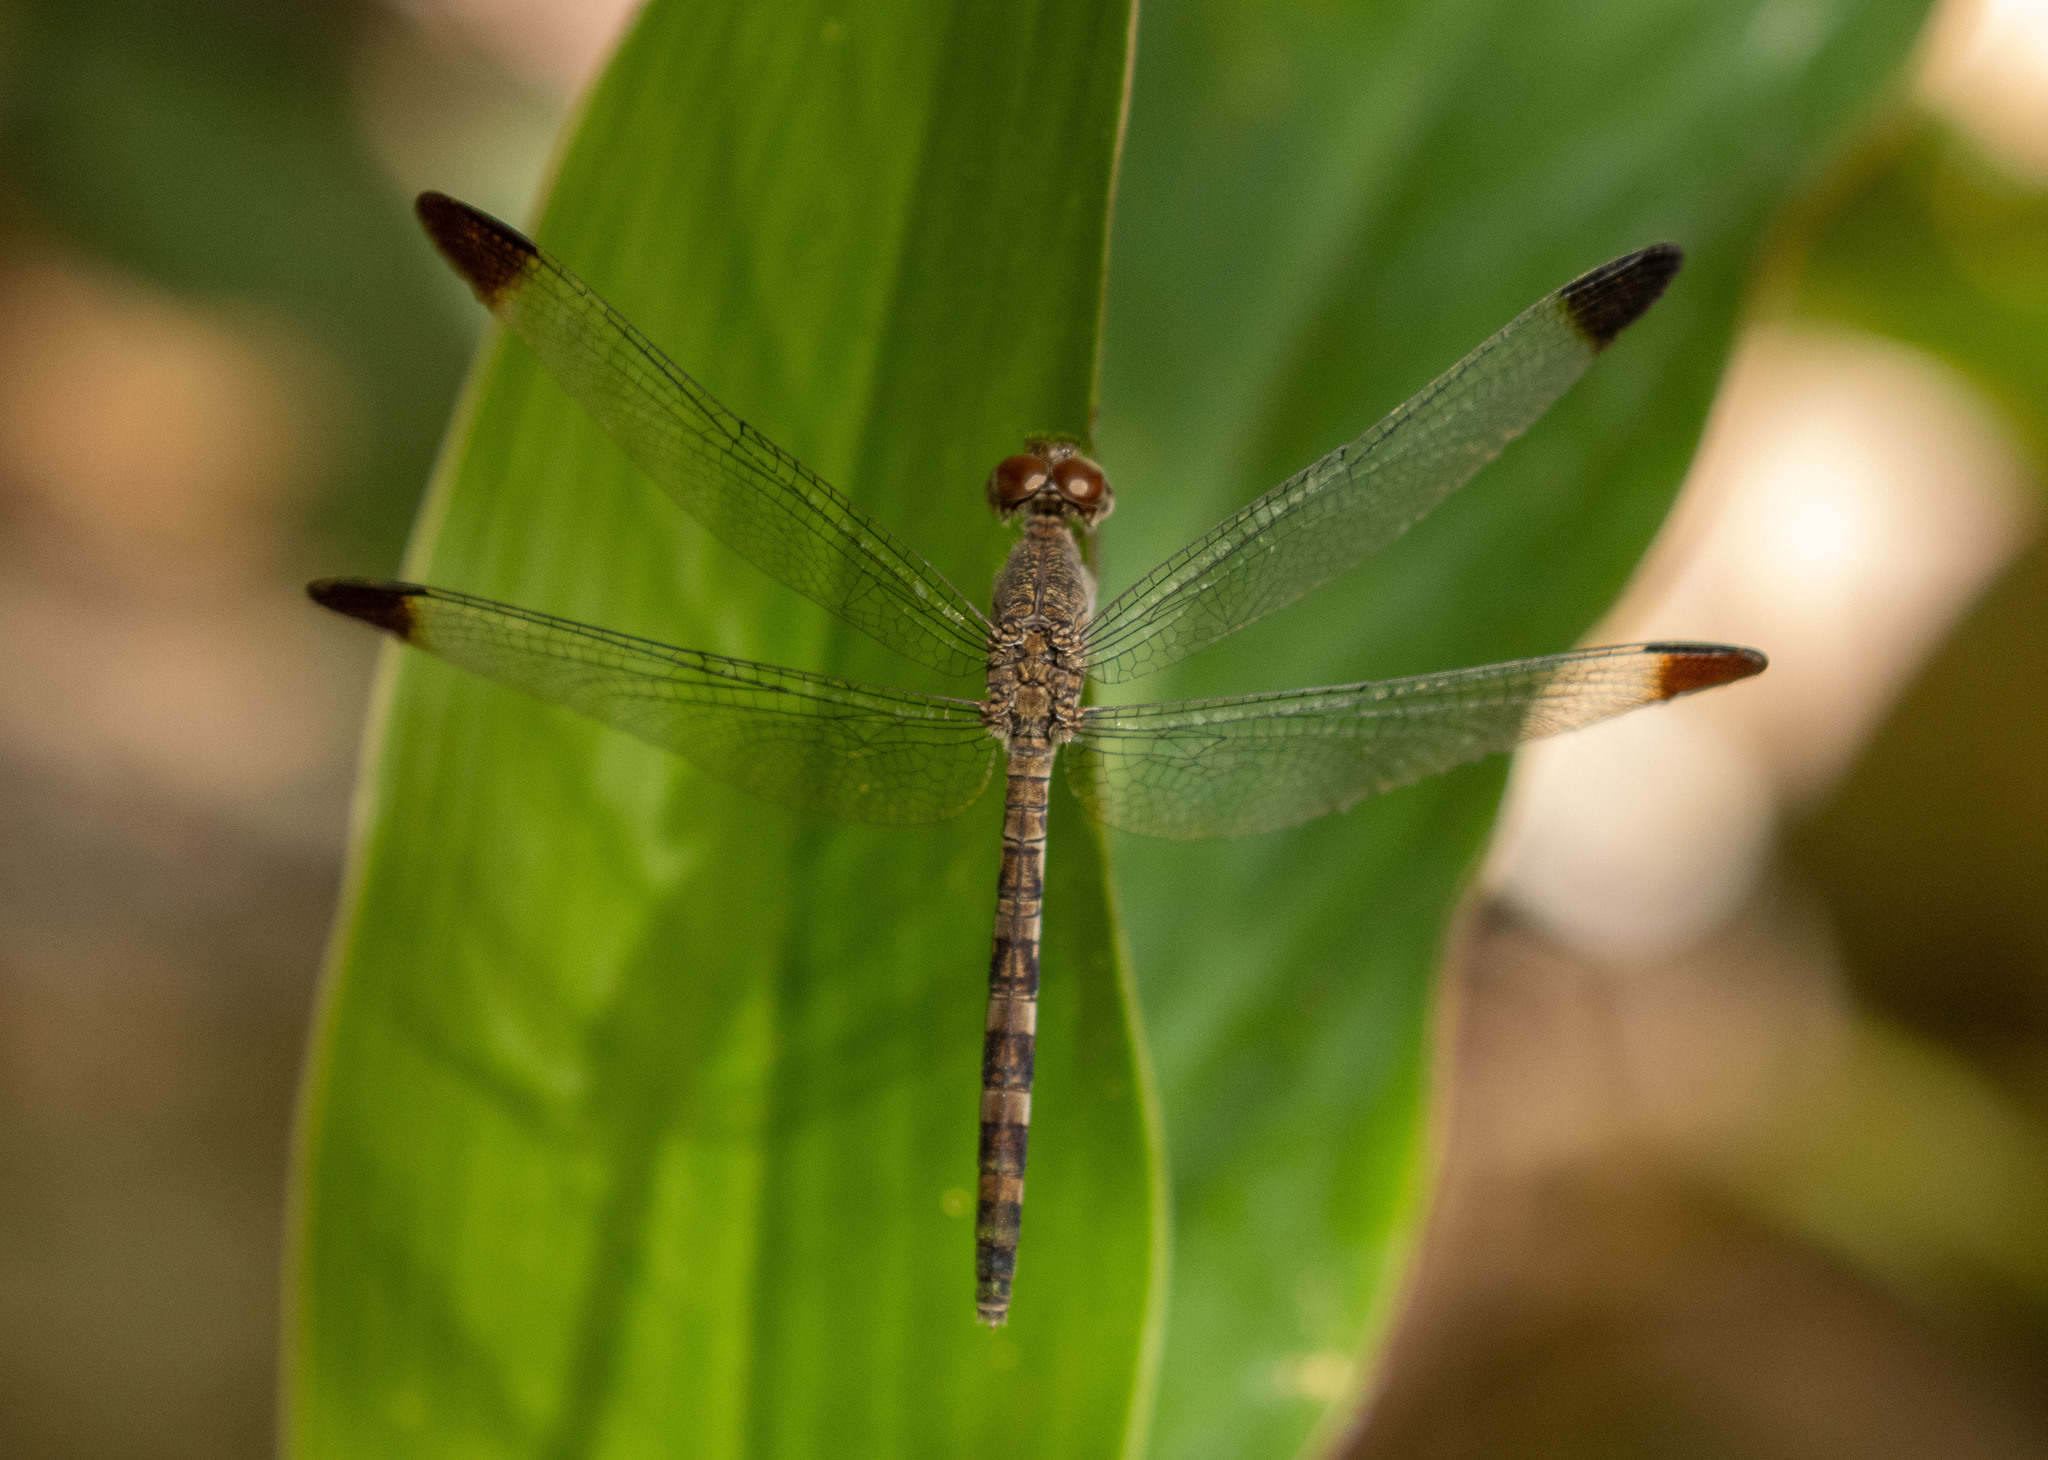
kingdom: Animalia
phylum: Arthropoda
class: Insecta
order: Odonata
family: Libellulidae
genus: Uracis
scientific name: Uracis imbuta
